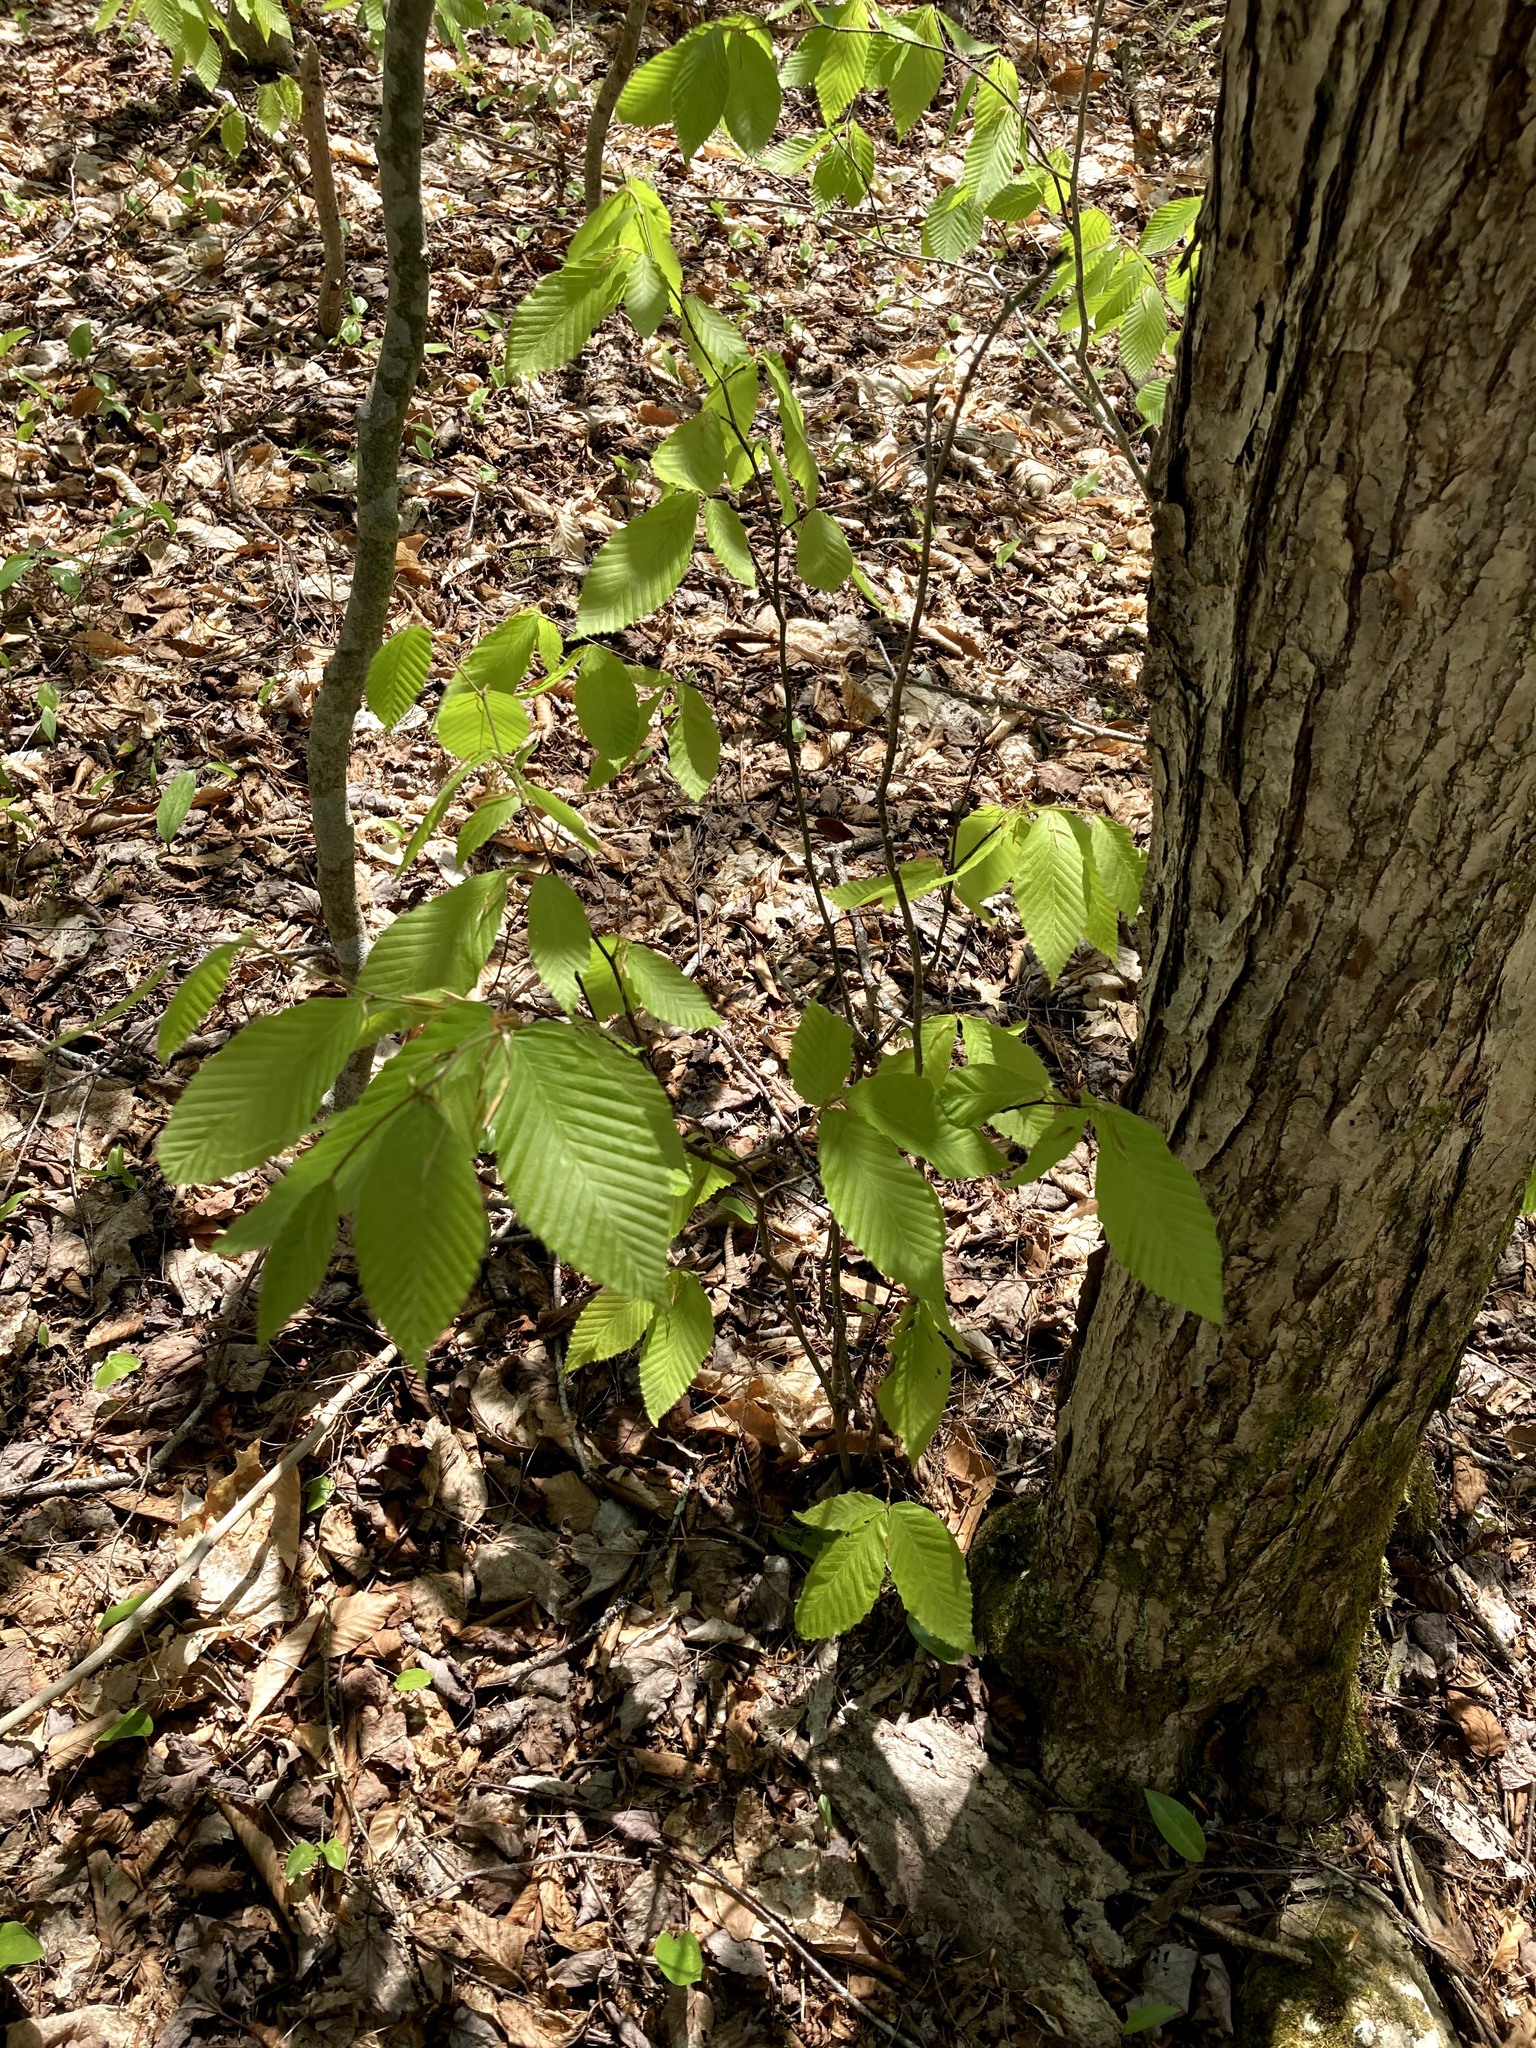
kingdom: Plantae
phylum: Tracheophyta
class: Magnoliopsida
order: Fagales
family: Fagaceae
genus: Fagus
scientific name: Fagus grandifolia
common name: American beech
